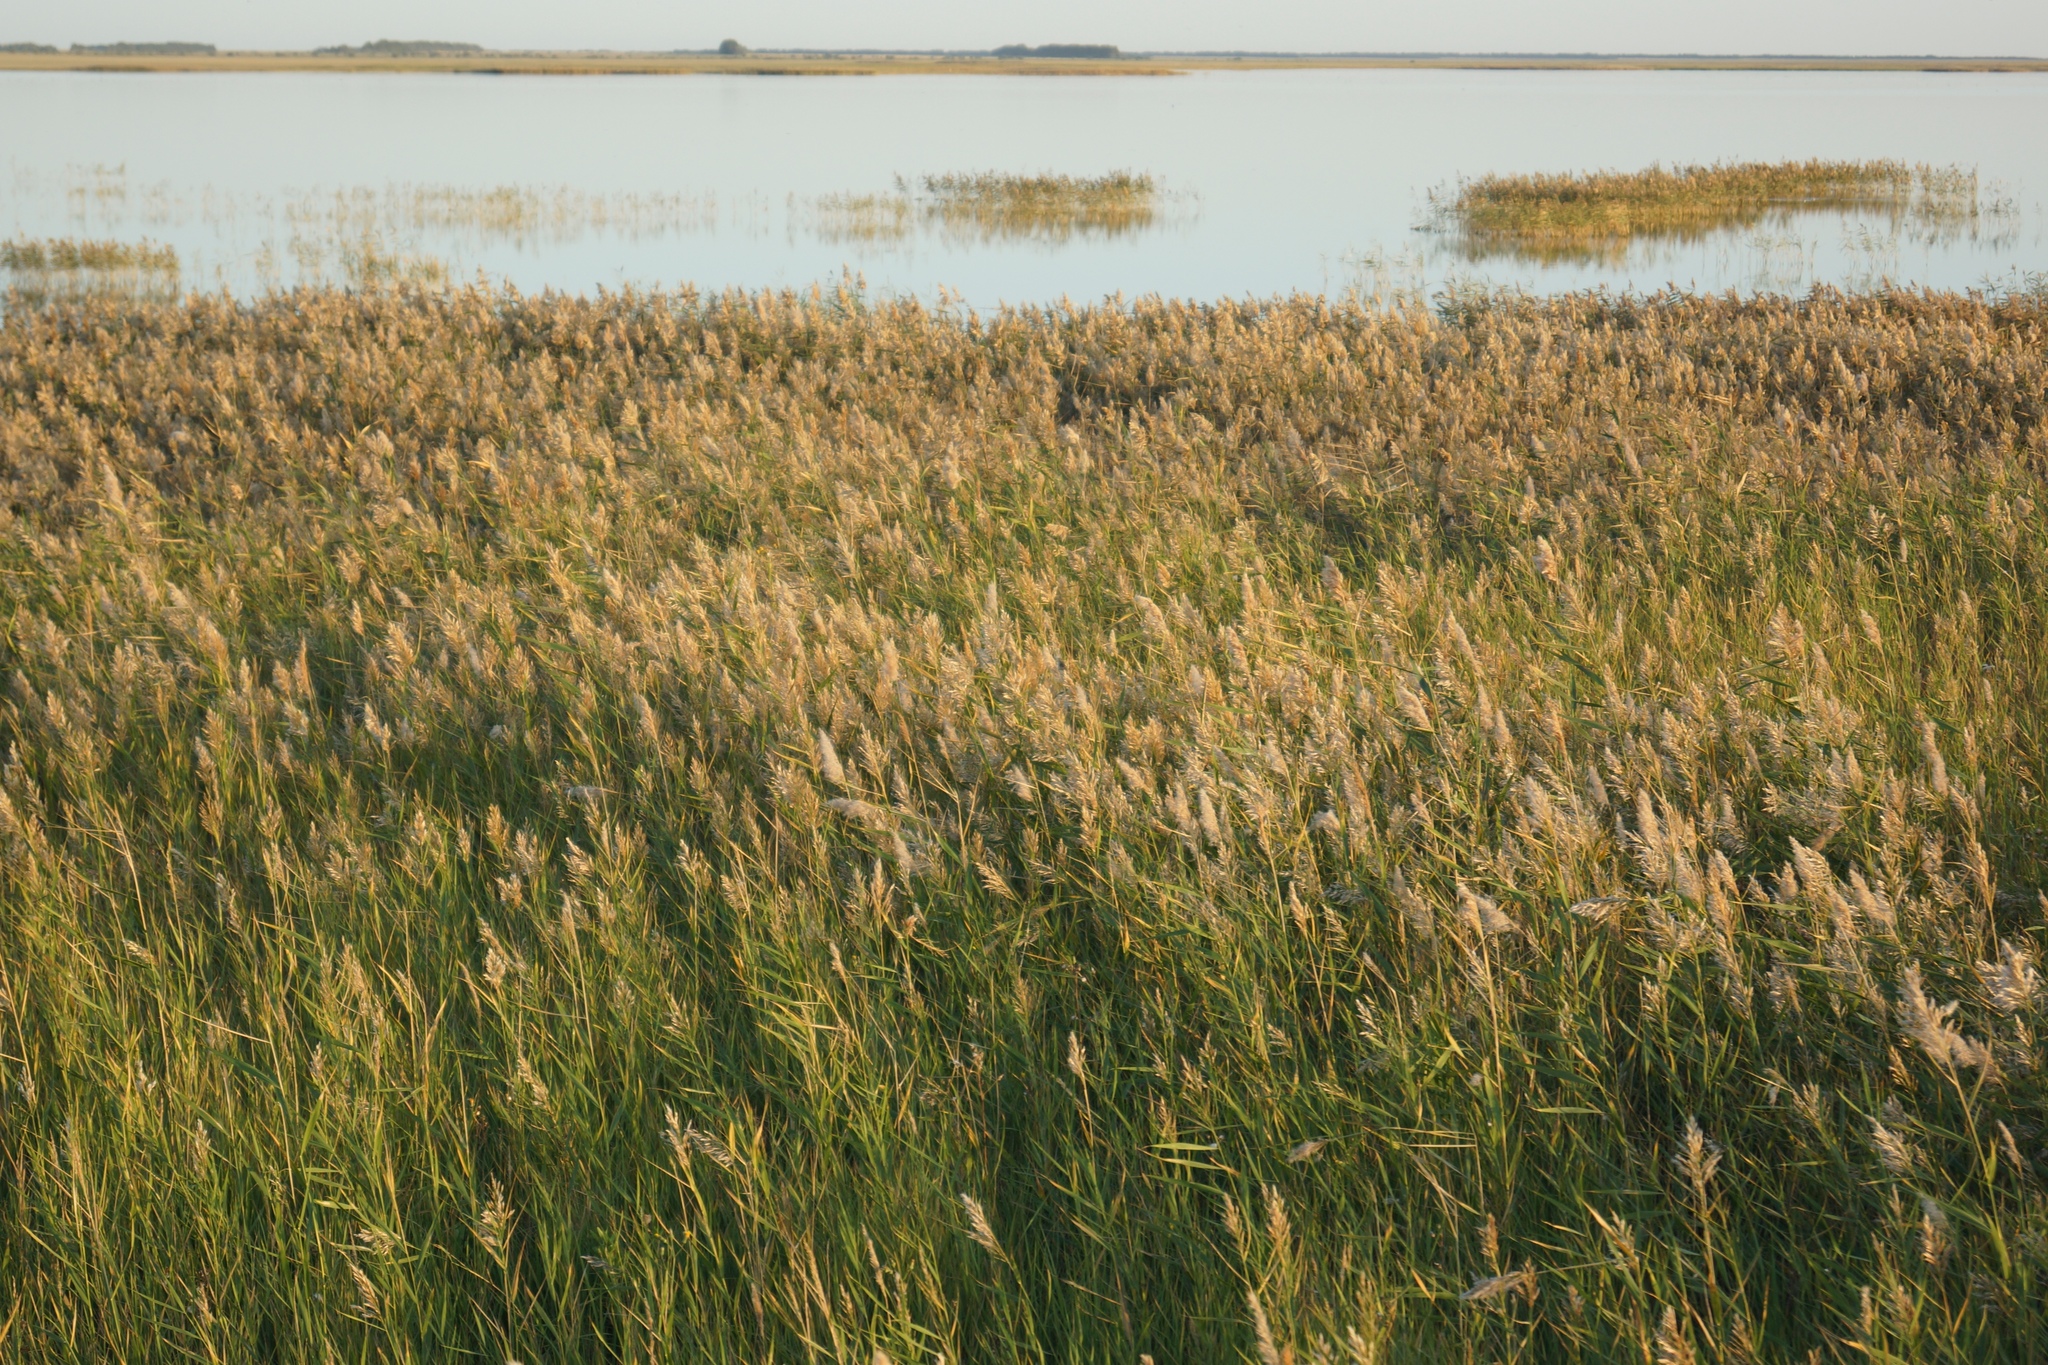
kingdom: Plantae
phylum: Tracheophyta
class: Liliopsida
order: Poales
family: Poaceae
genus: Phragmites
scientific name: Phragmites australis
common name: Common reed
